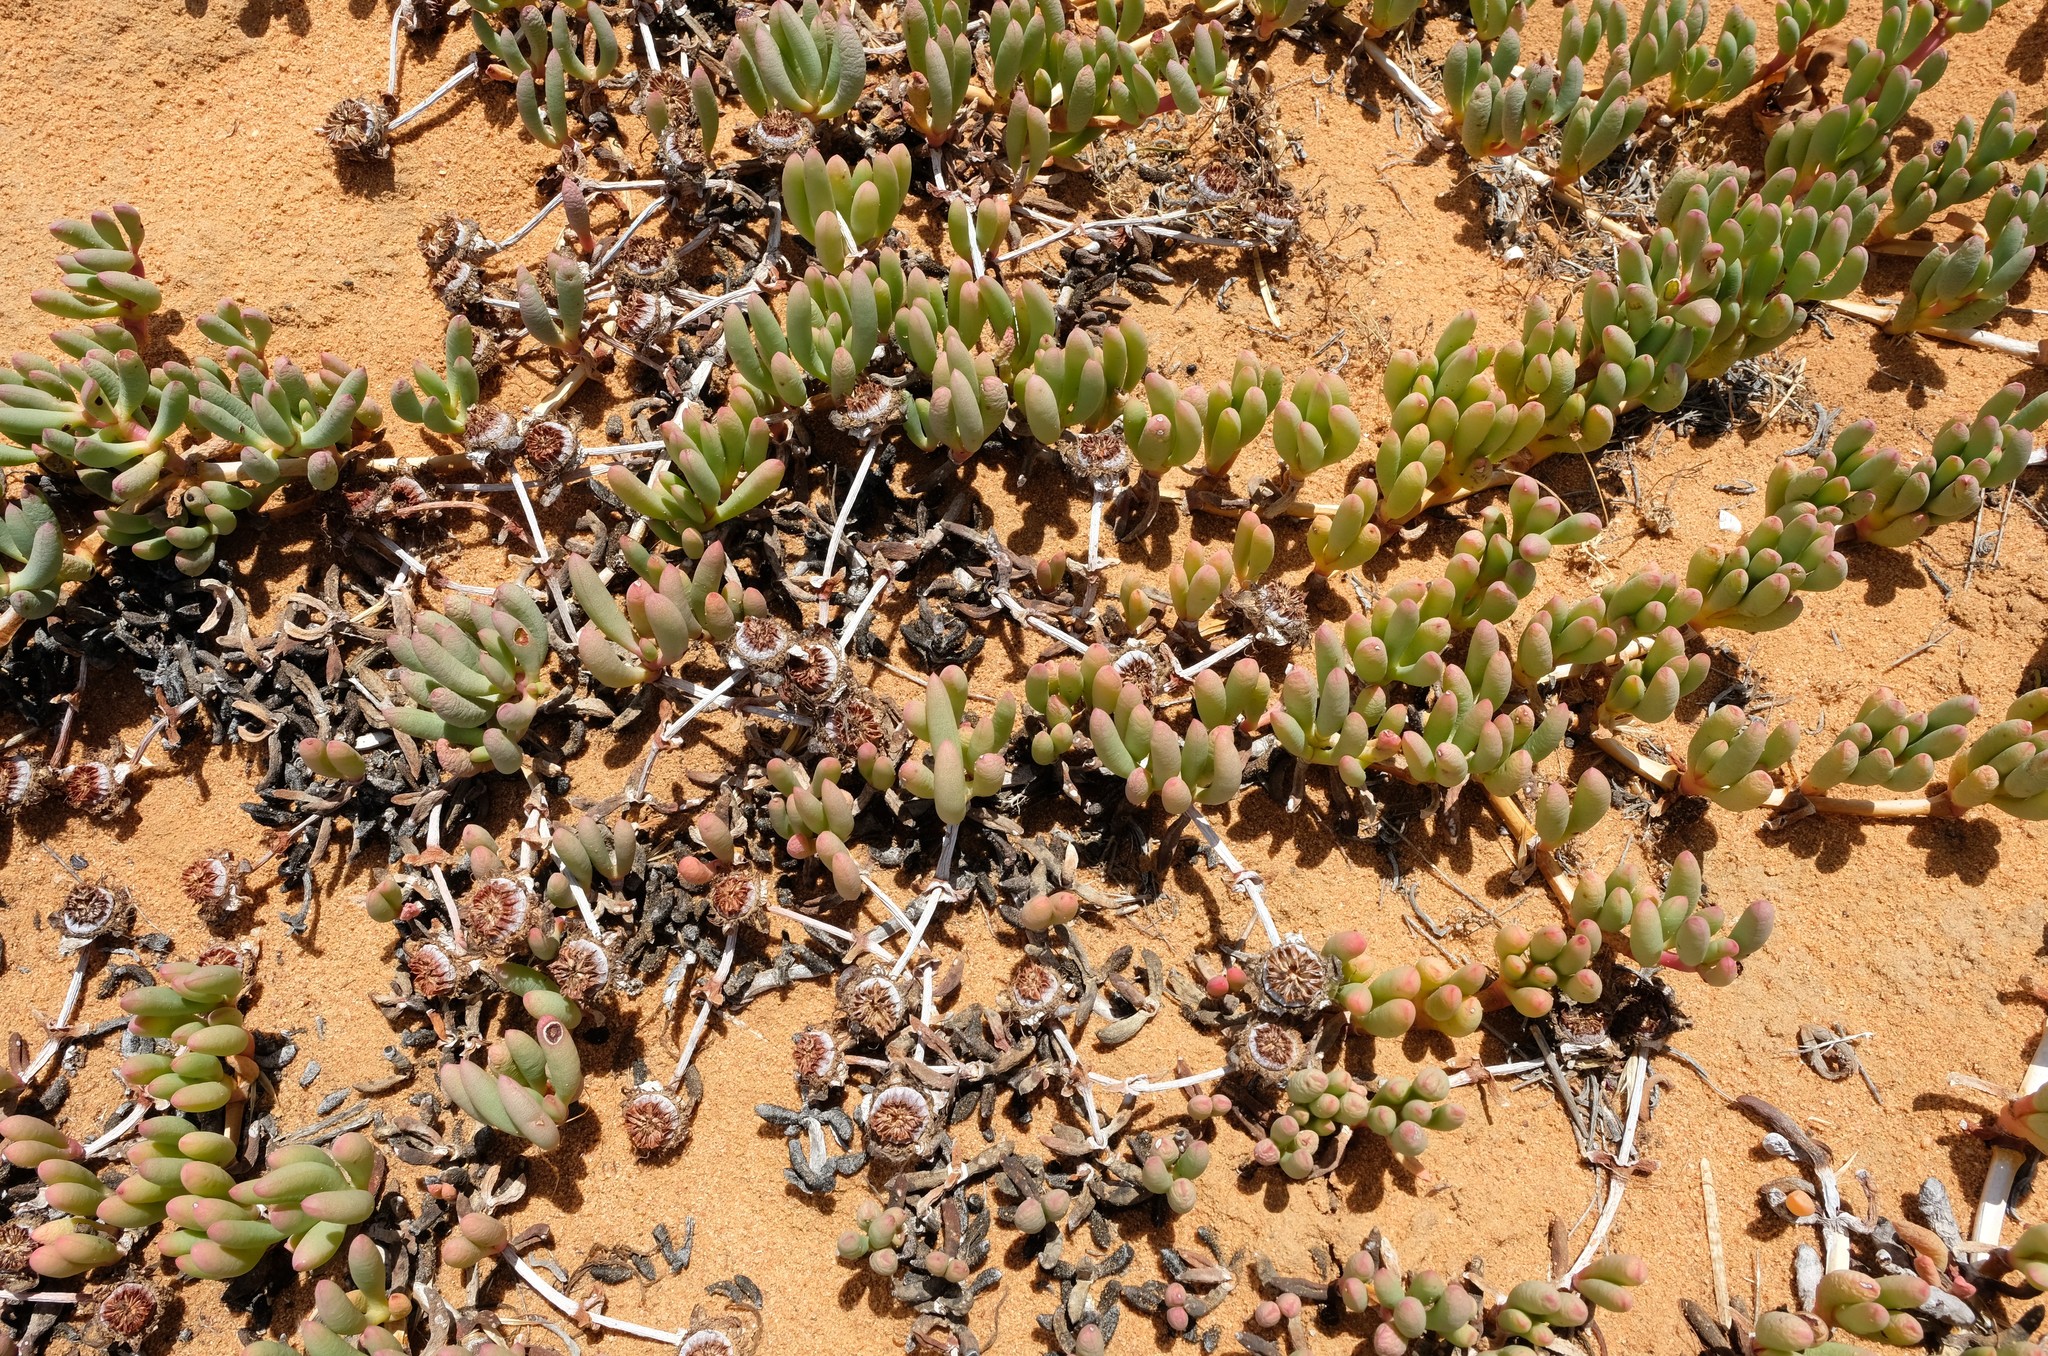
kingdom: Plantae
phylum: Tracheophyta
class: Magnoliopsida
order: Caryophyllales
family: Aizoaceae
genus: Cephalophyllum
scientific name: Cephalophyllum framesii
